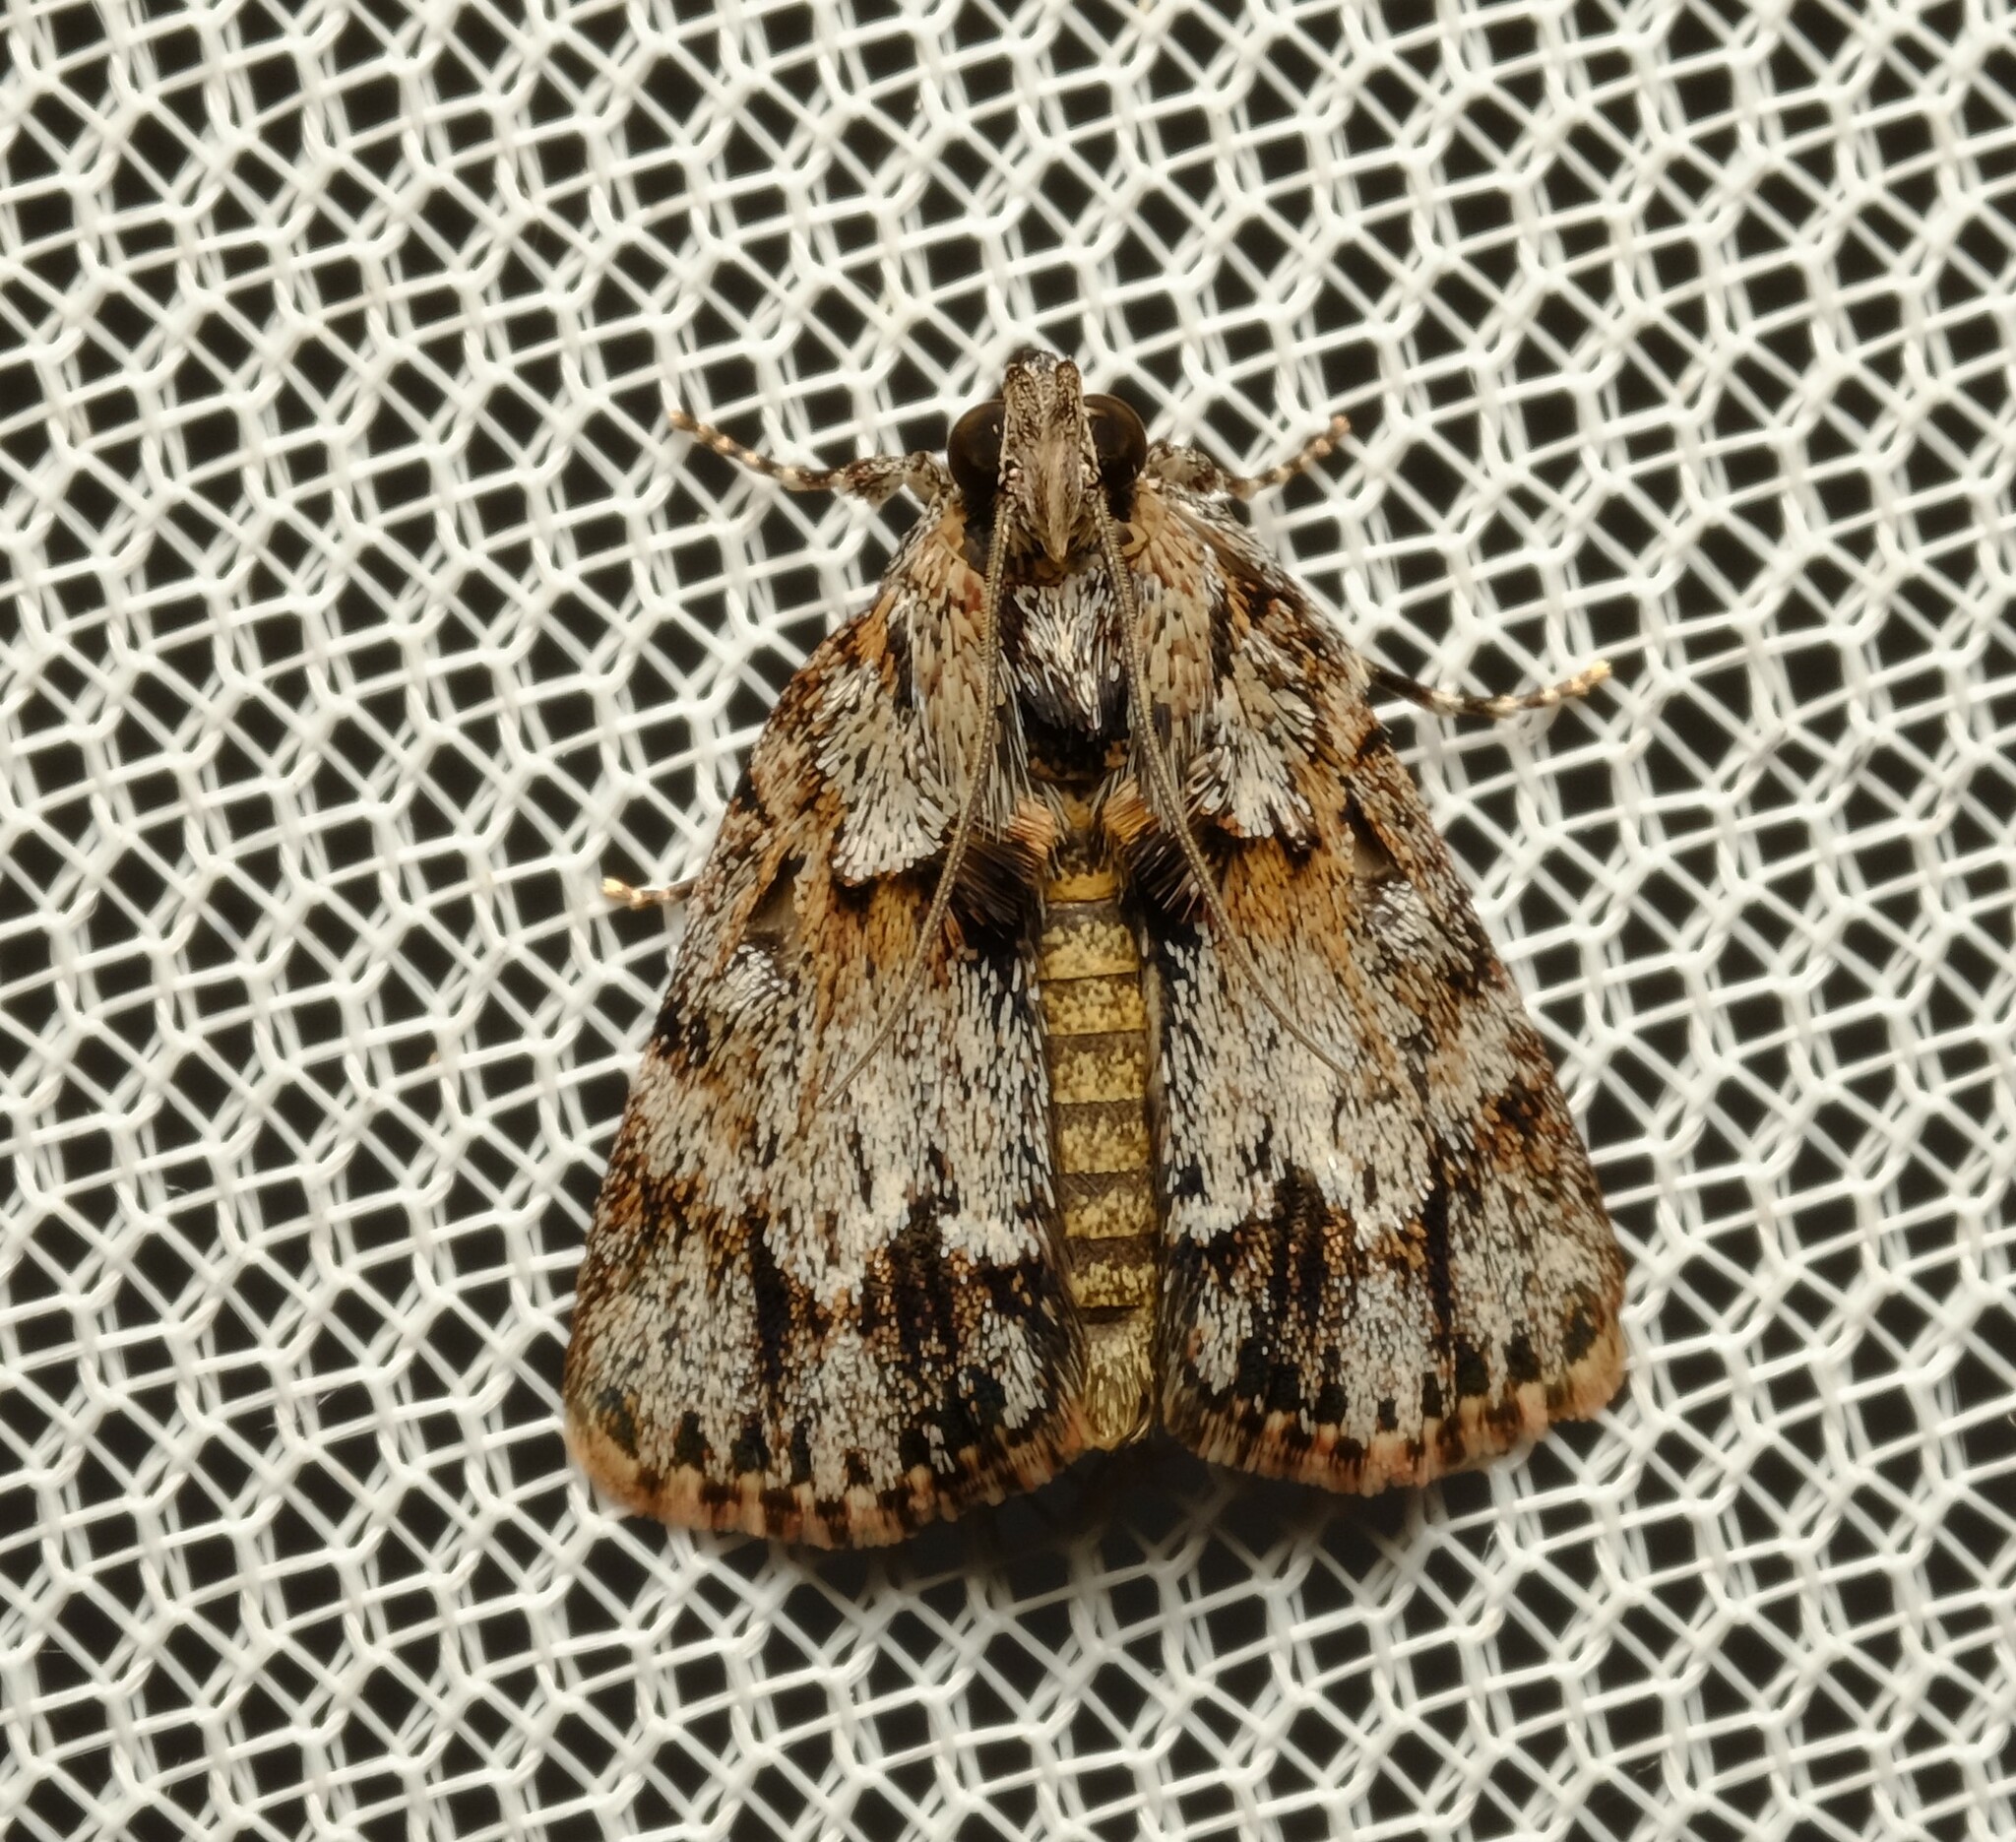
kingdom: Animalia
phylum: Arthropoda
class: Insecta
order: Lepidoptera
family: Pyralidae
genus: Spectrotrota
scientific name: Spectrotrota fimbrialis
